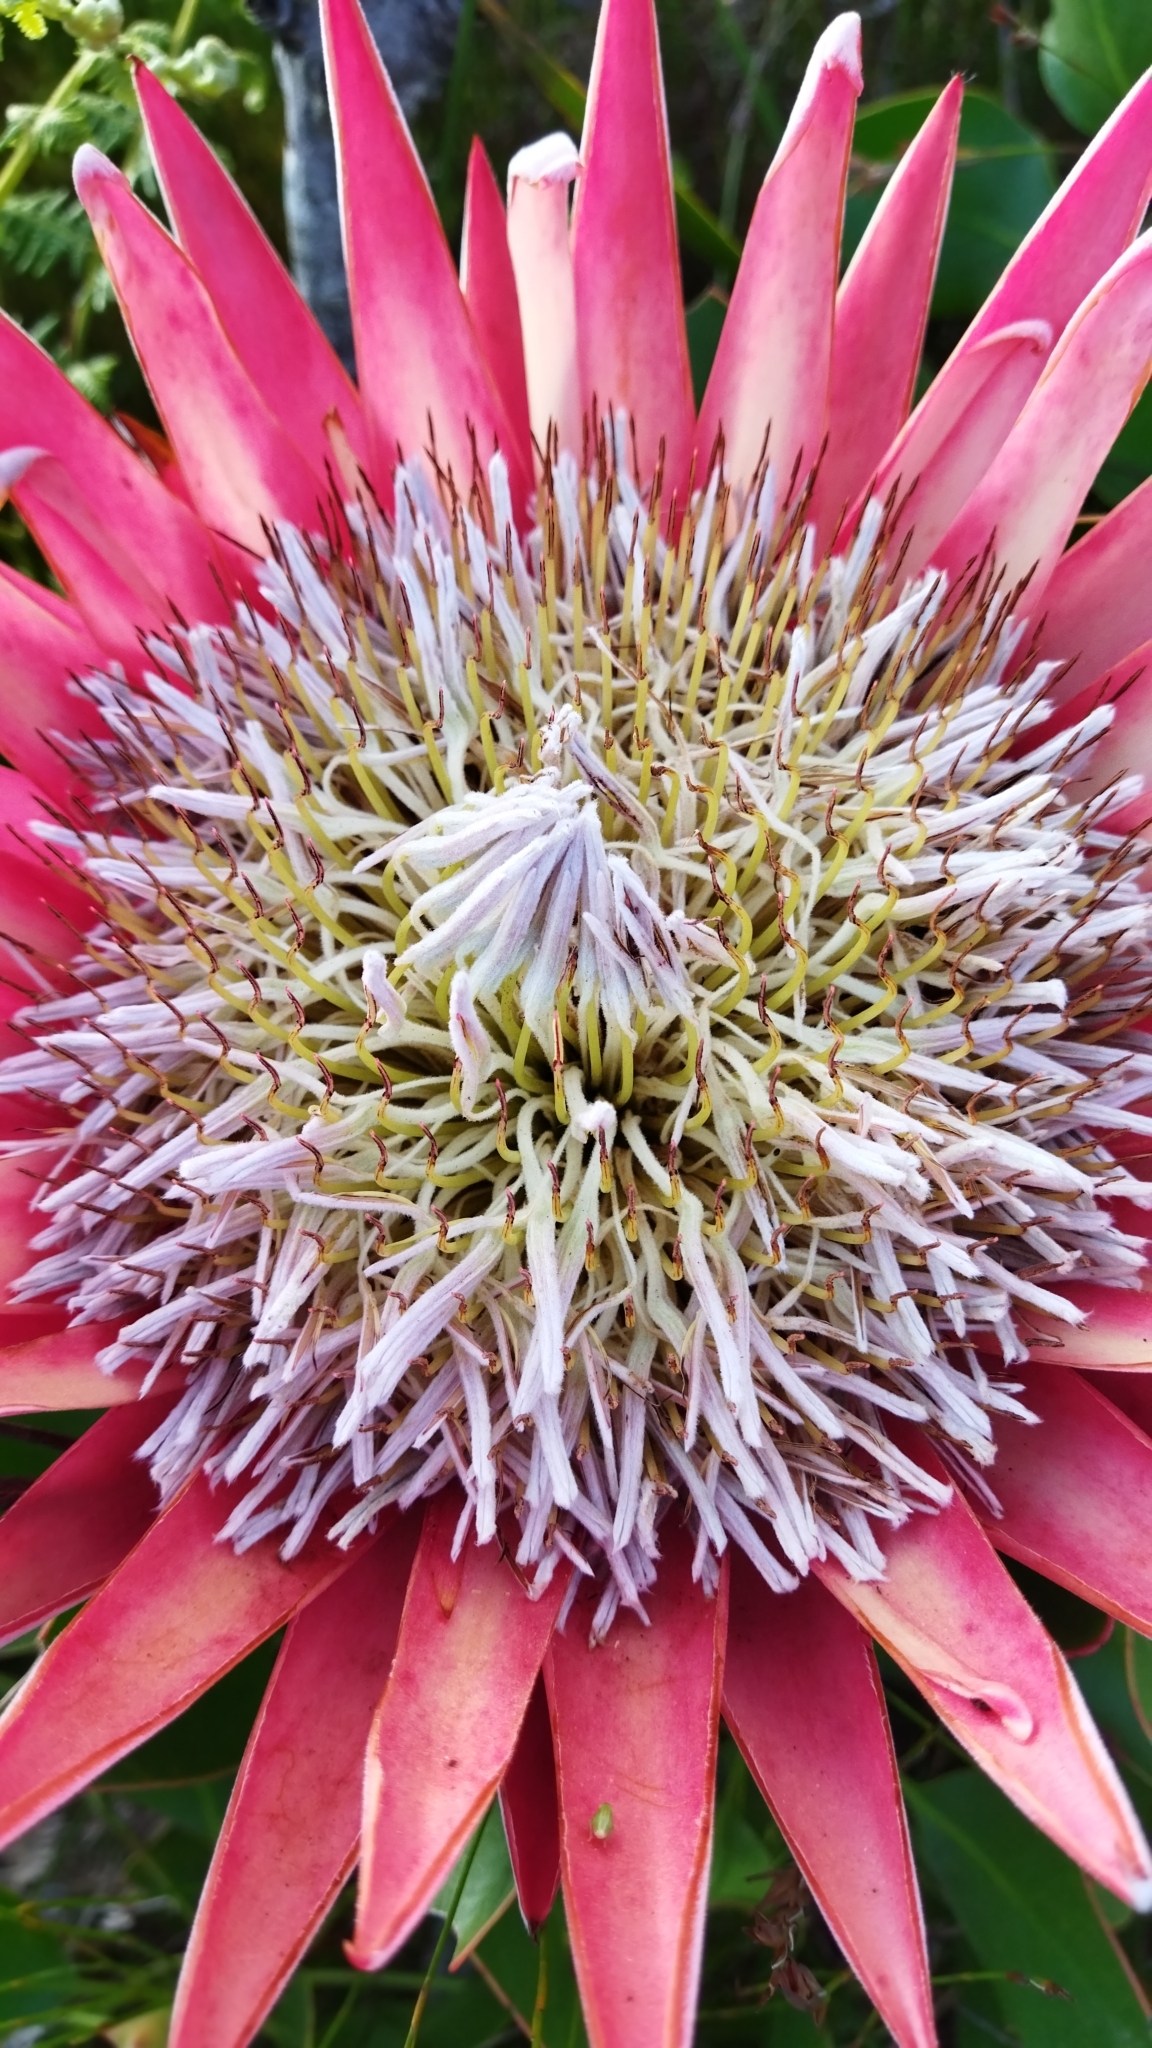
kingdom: Plantae
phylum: Tracheophyta
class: Magnoliopsida
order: Proteales
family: Proteaceae
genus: Protea
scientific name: Protea cynaroides
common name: King protea
